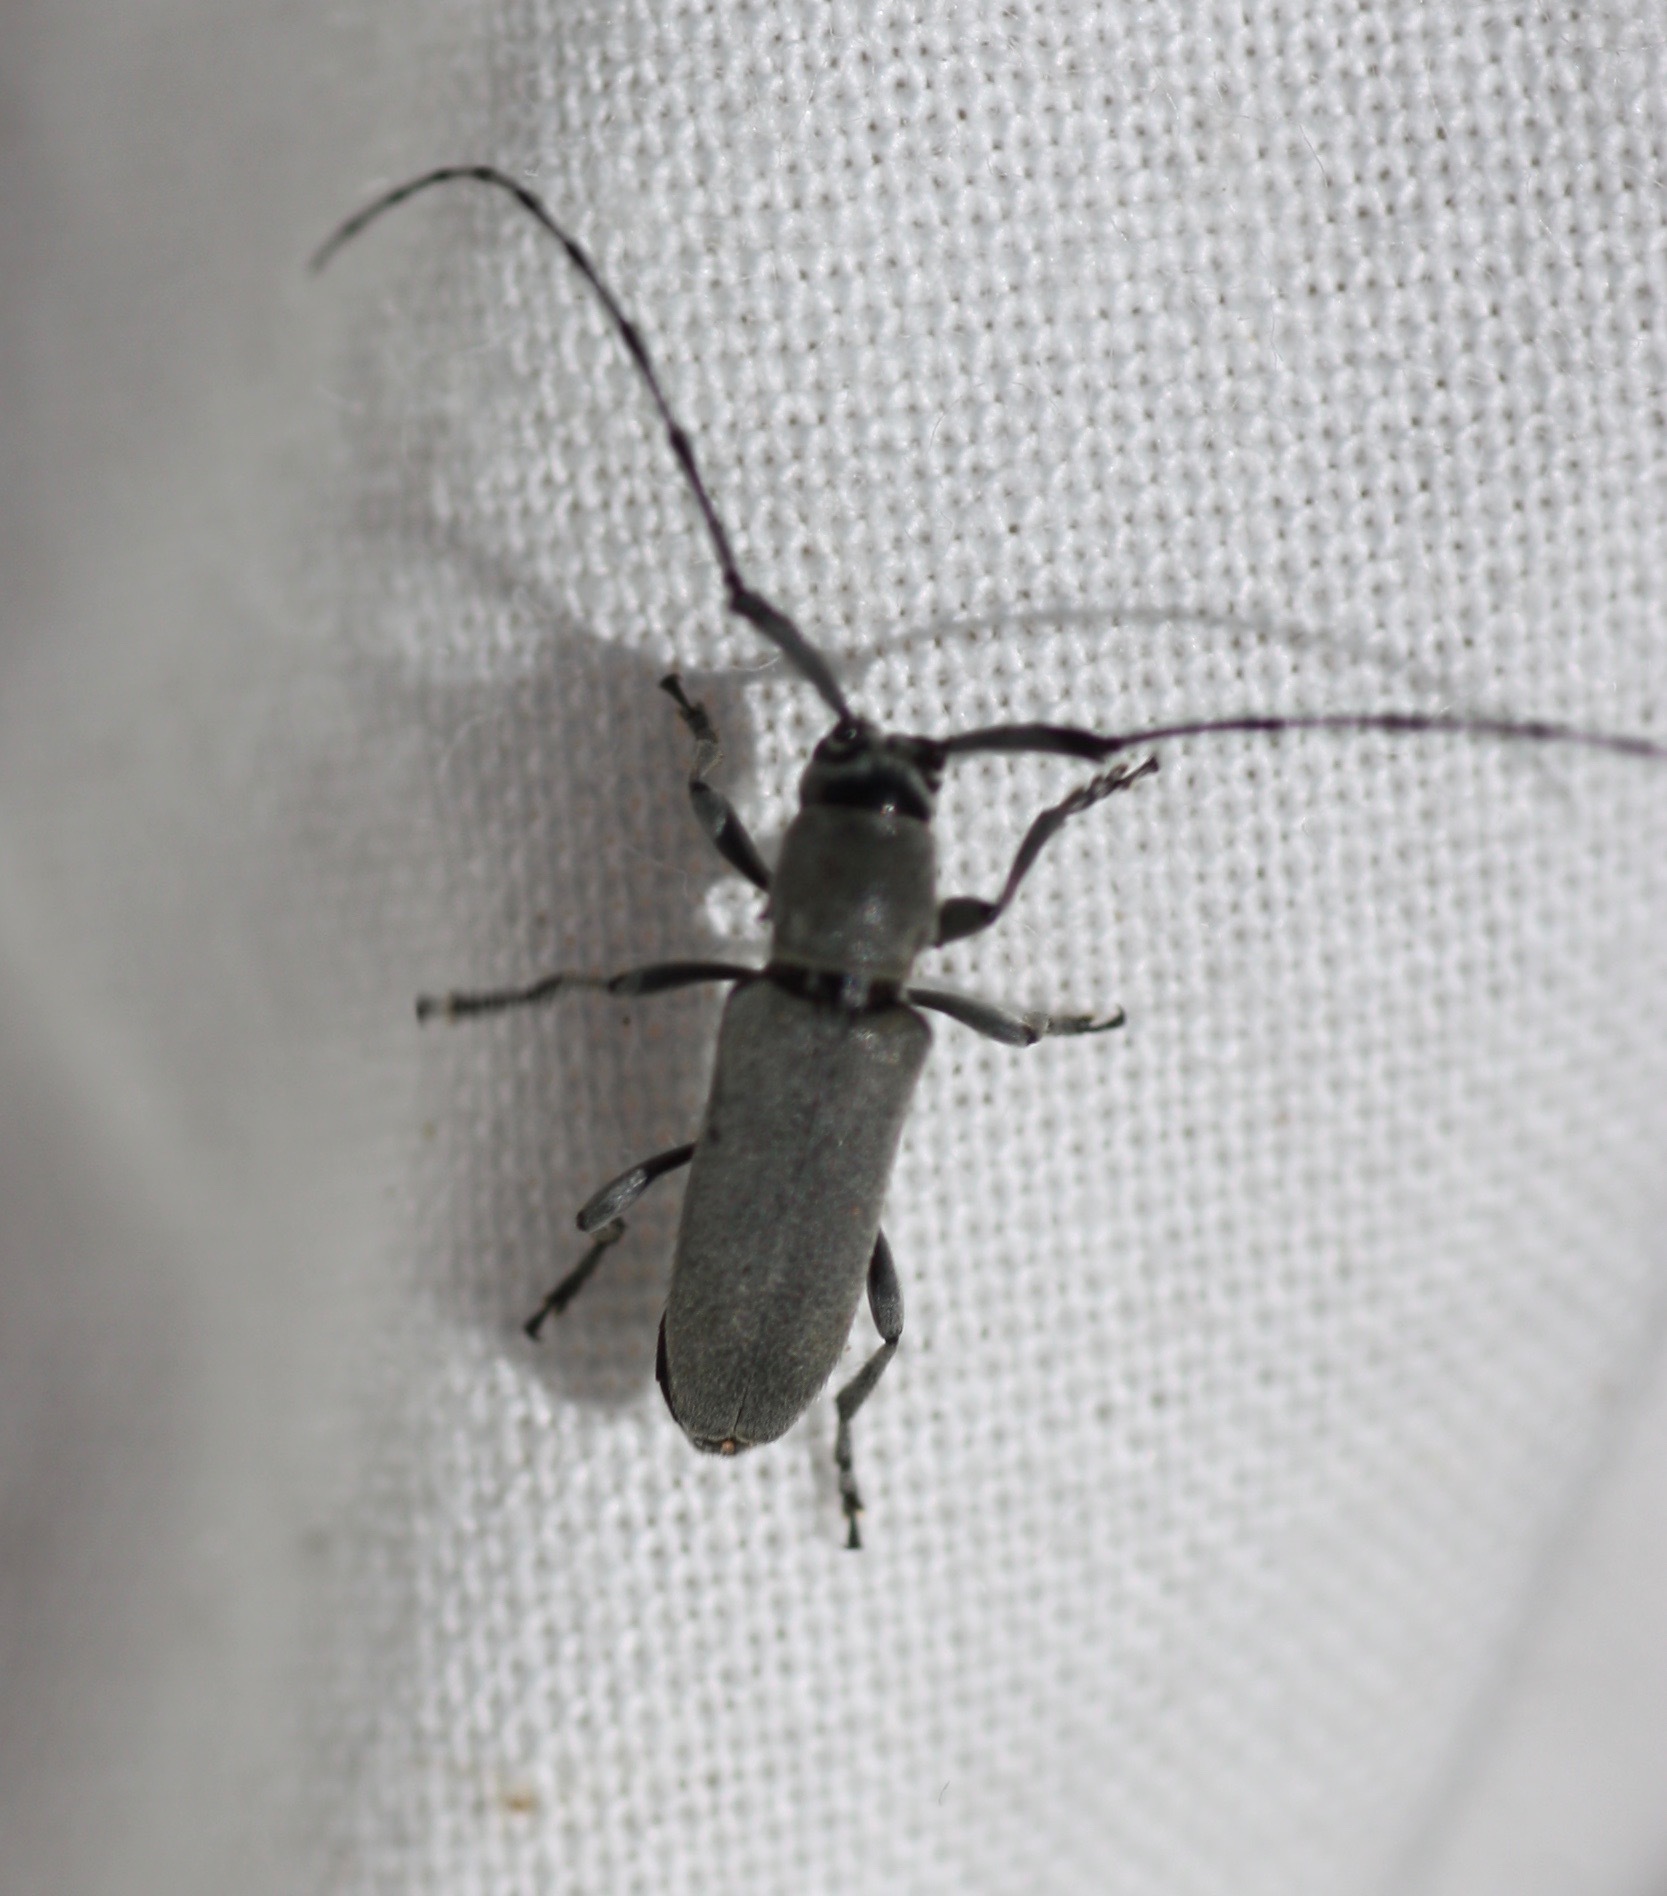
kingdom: Animalia
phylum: Arthropoda
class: Insecta
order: Coleoptera
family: Cerambycidae
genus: Dectes
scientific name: Dectes texanus
